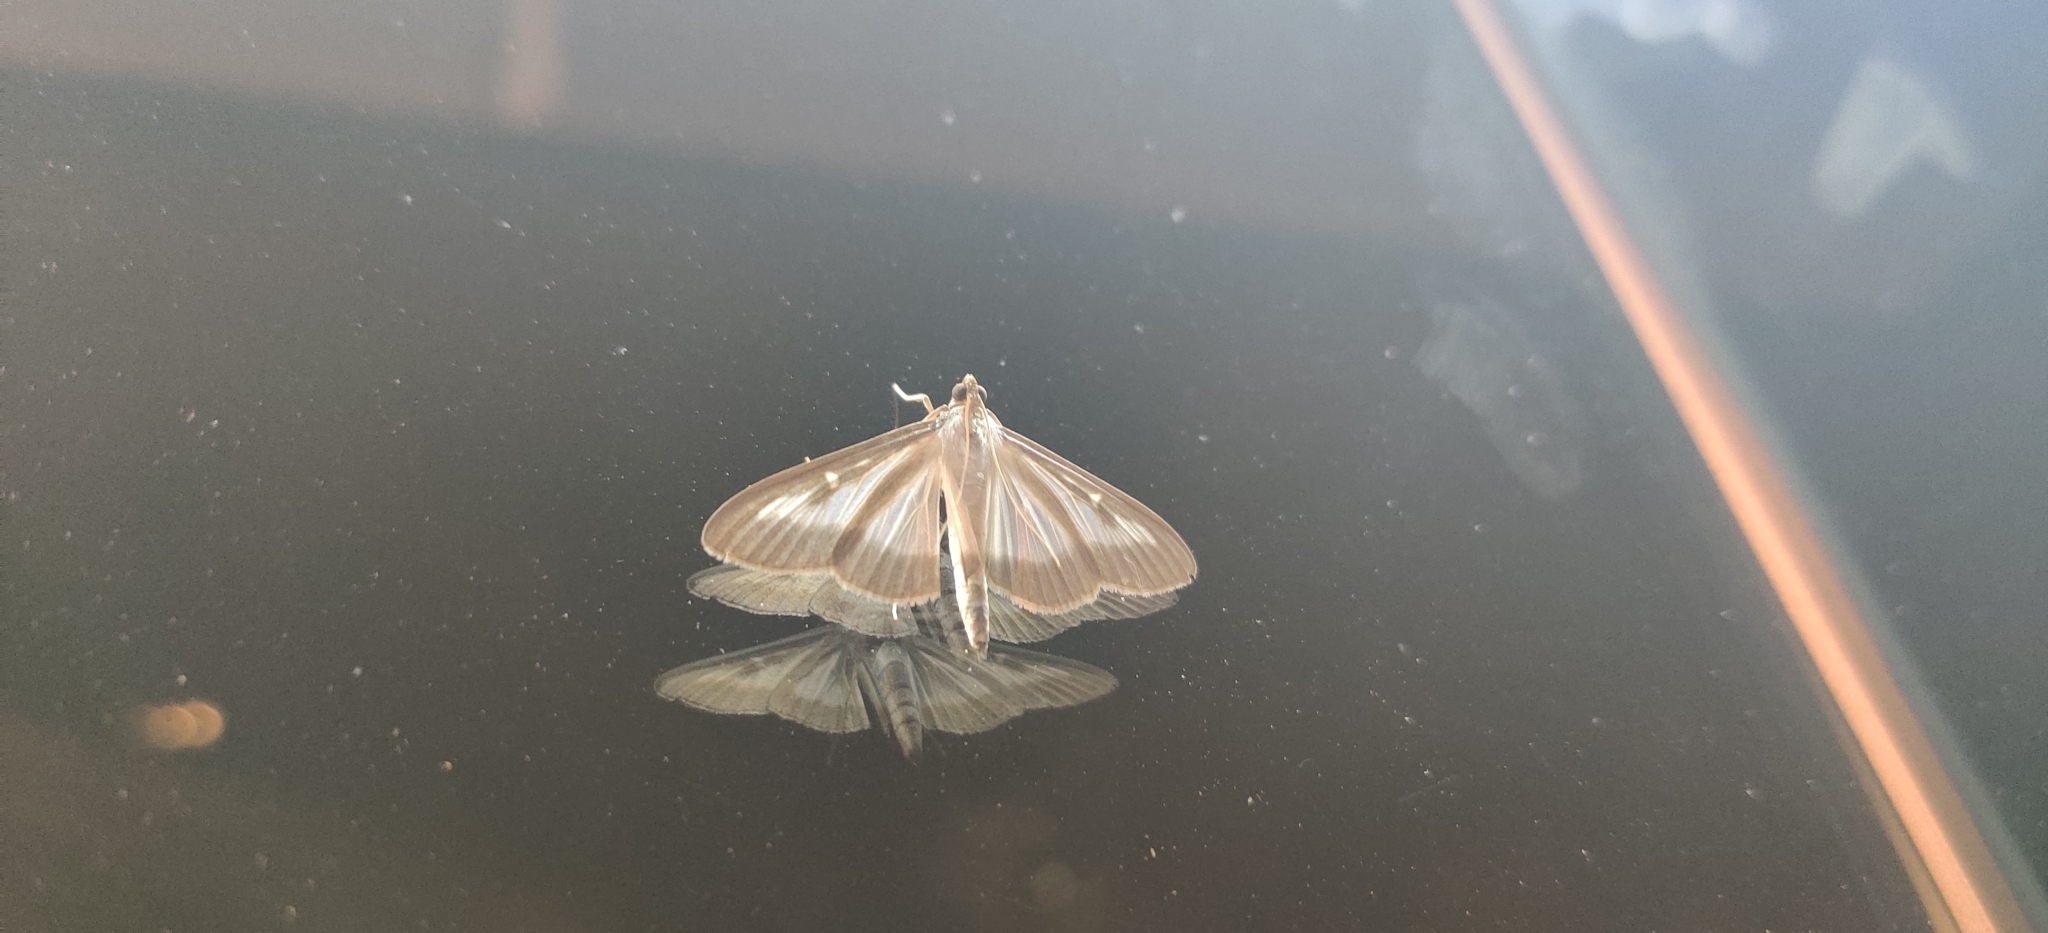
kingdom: Animalia
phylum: Arthropoda
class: Insecta
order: Lepidoptera
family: Crambidae
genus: Cydalima
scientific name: Cydalima perspectalis
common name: Box tree moth
